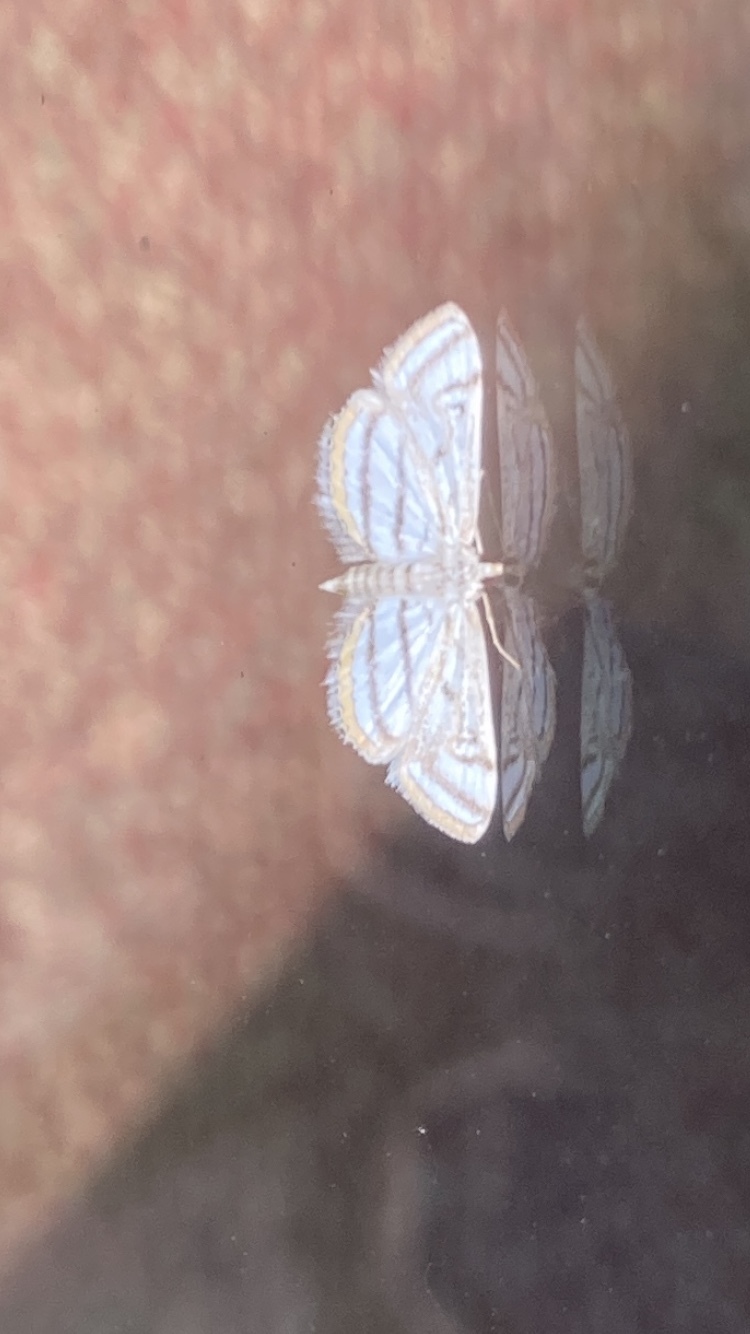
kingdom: Animalia
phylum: Arthropoda
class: Insecta
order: Lepidoptera
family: Crambidae
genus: Parapoynx
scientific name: Parapoynx badiusalis
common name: Chestnut-marked pondweed moth
